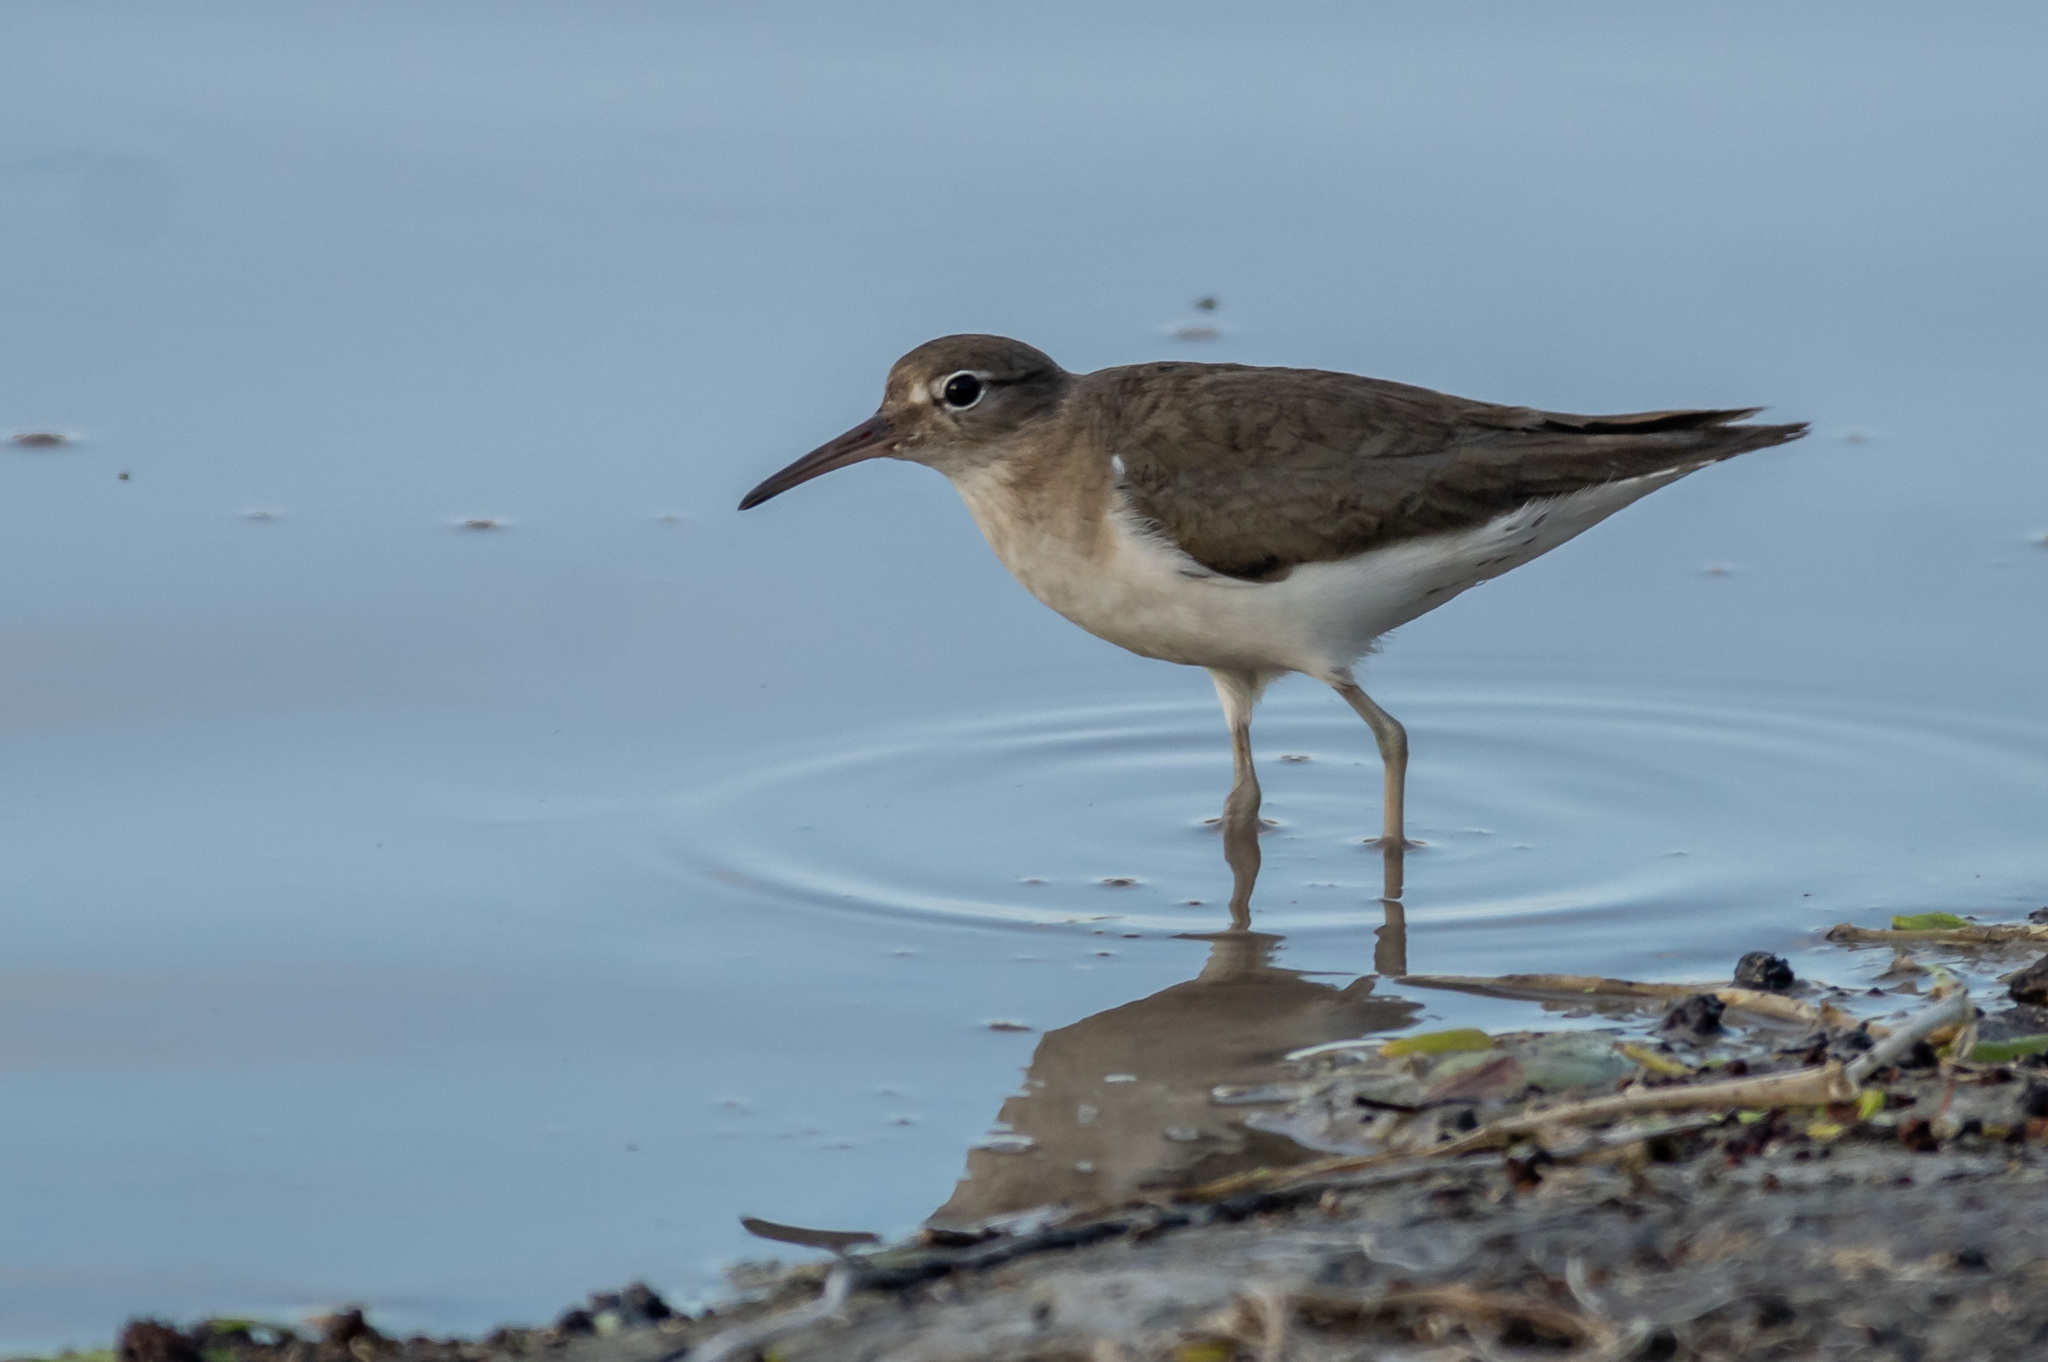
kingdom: Animalia
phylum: Chordata
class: Aves
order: Charadriiformes
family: Scolopacidae
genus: Actitis
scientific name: Actitis macularius
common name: Spotted sandpiper
